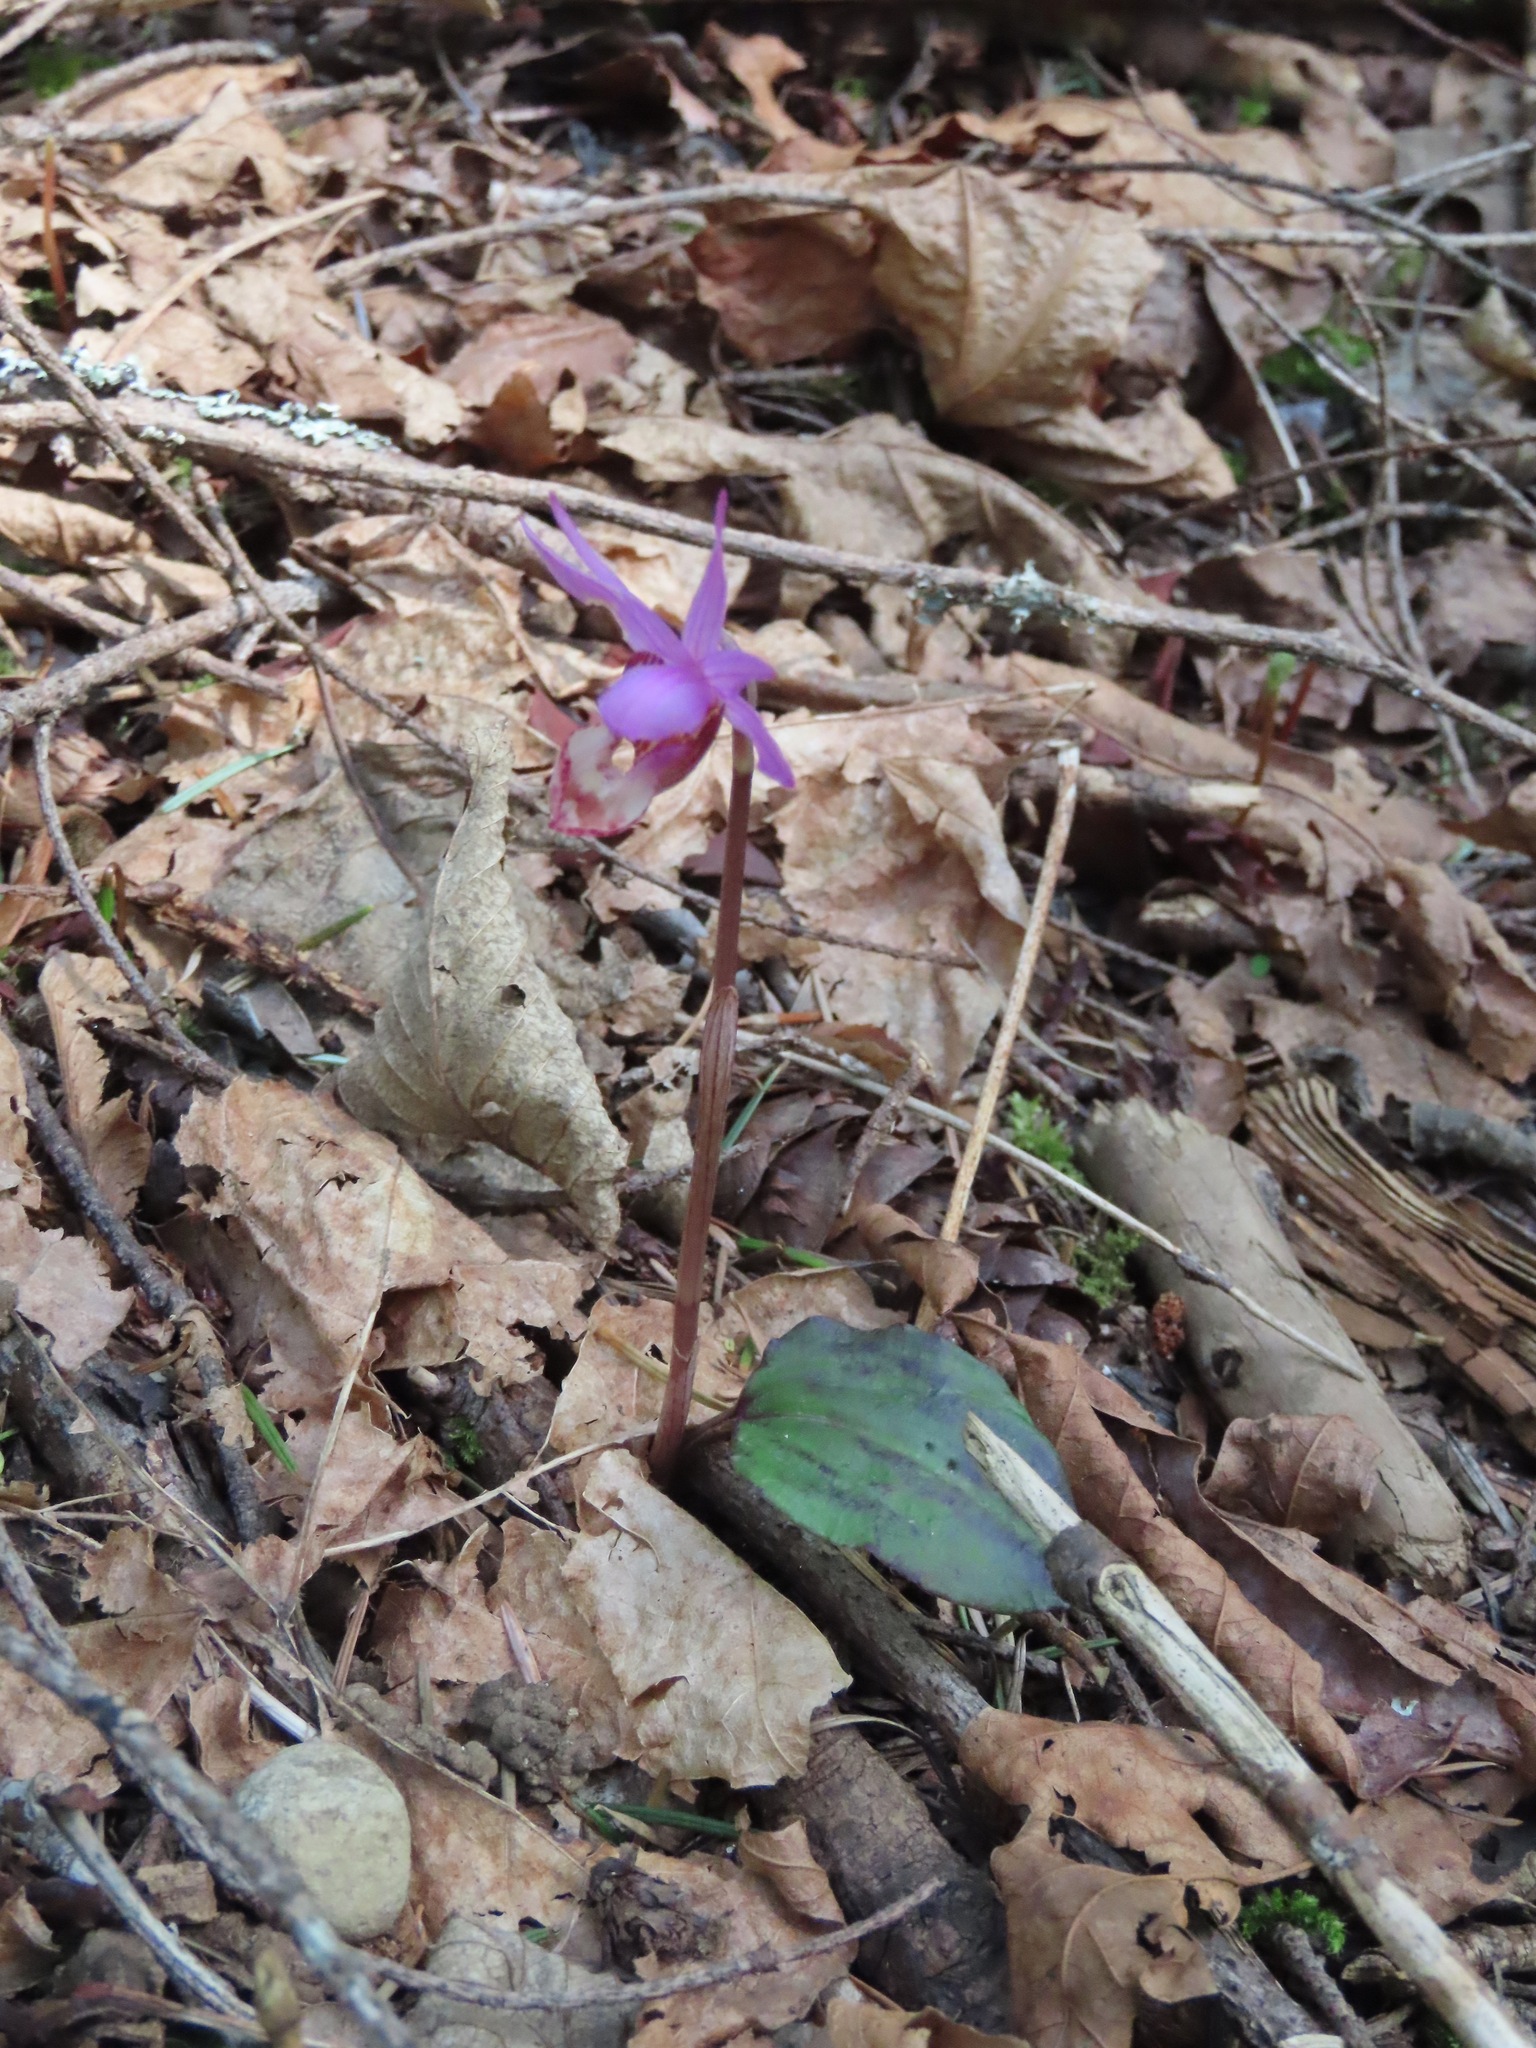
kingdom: Plantae
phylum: Tracheophyta
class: Liliopsida
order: Asparagales
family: Orchidaceae
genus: Calypso
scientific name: Calypso bulbosa
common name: Calypso
